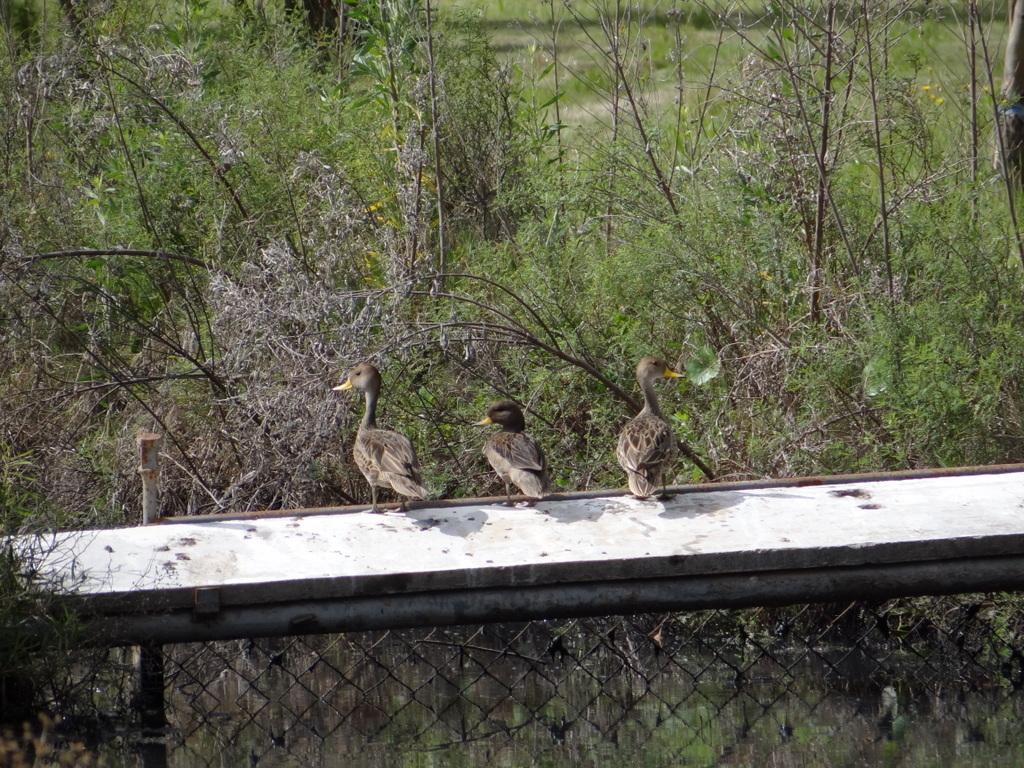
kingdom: Animalia
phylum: Chordata
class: Aves
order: Anseriformes
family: Anatidae
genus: Anas
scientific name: Anas georgica
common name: Yellow-billed pintail
